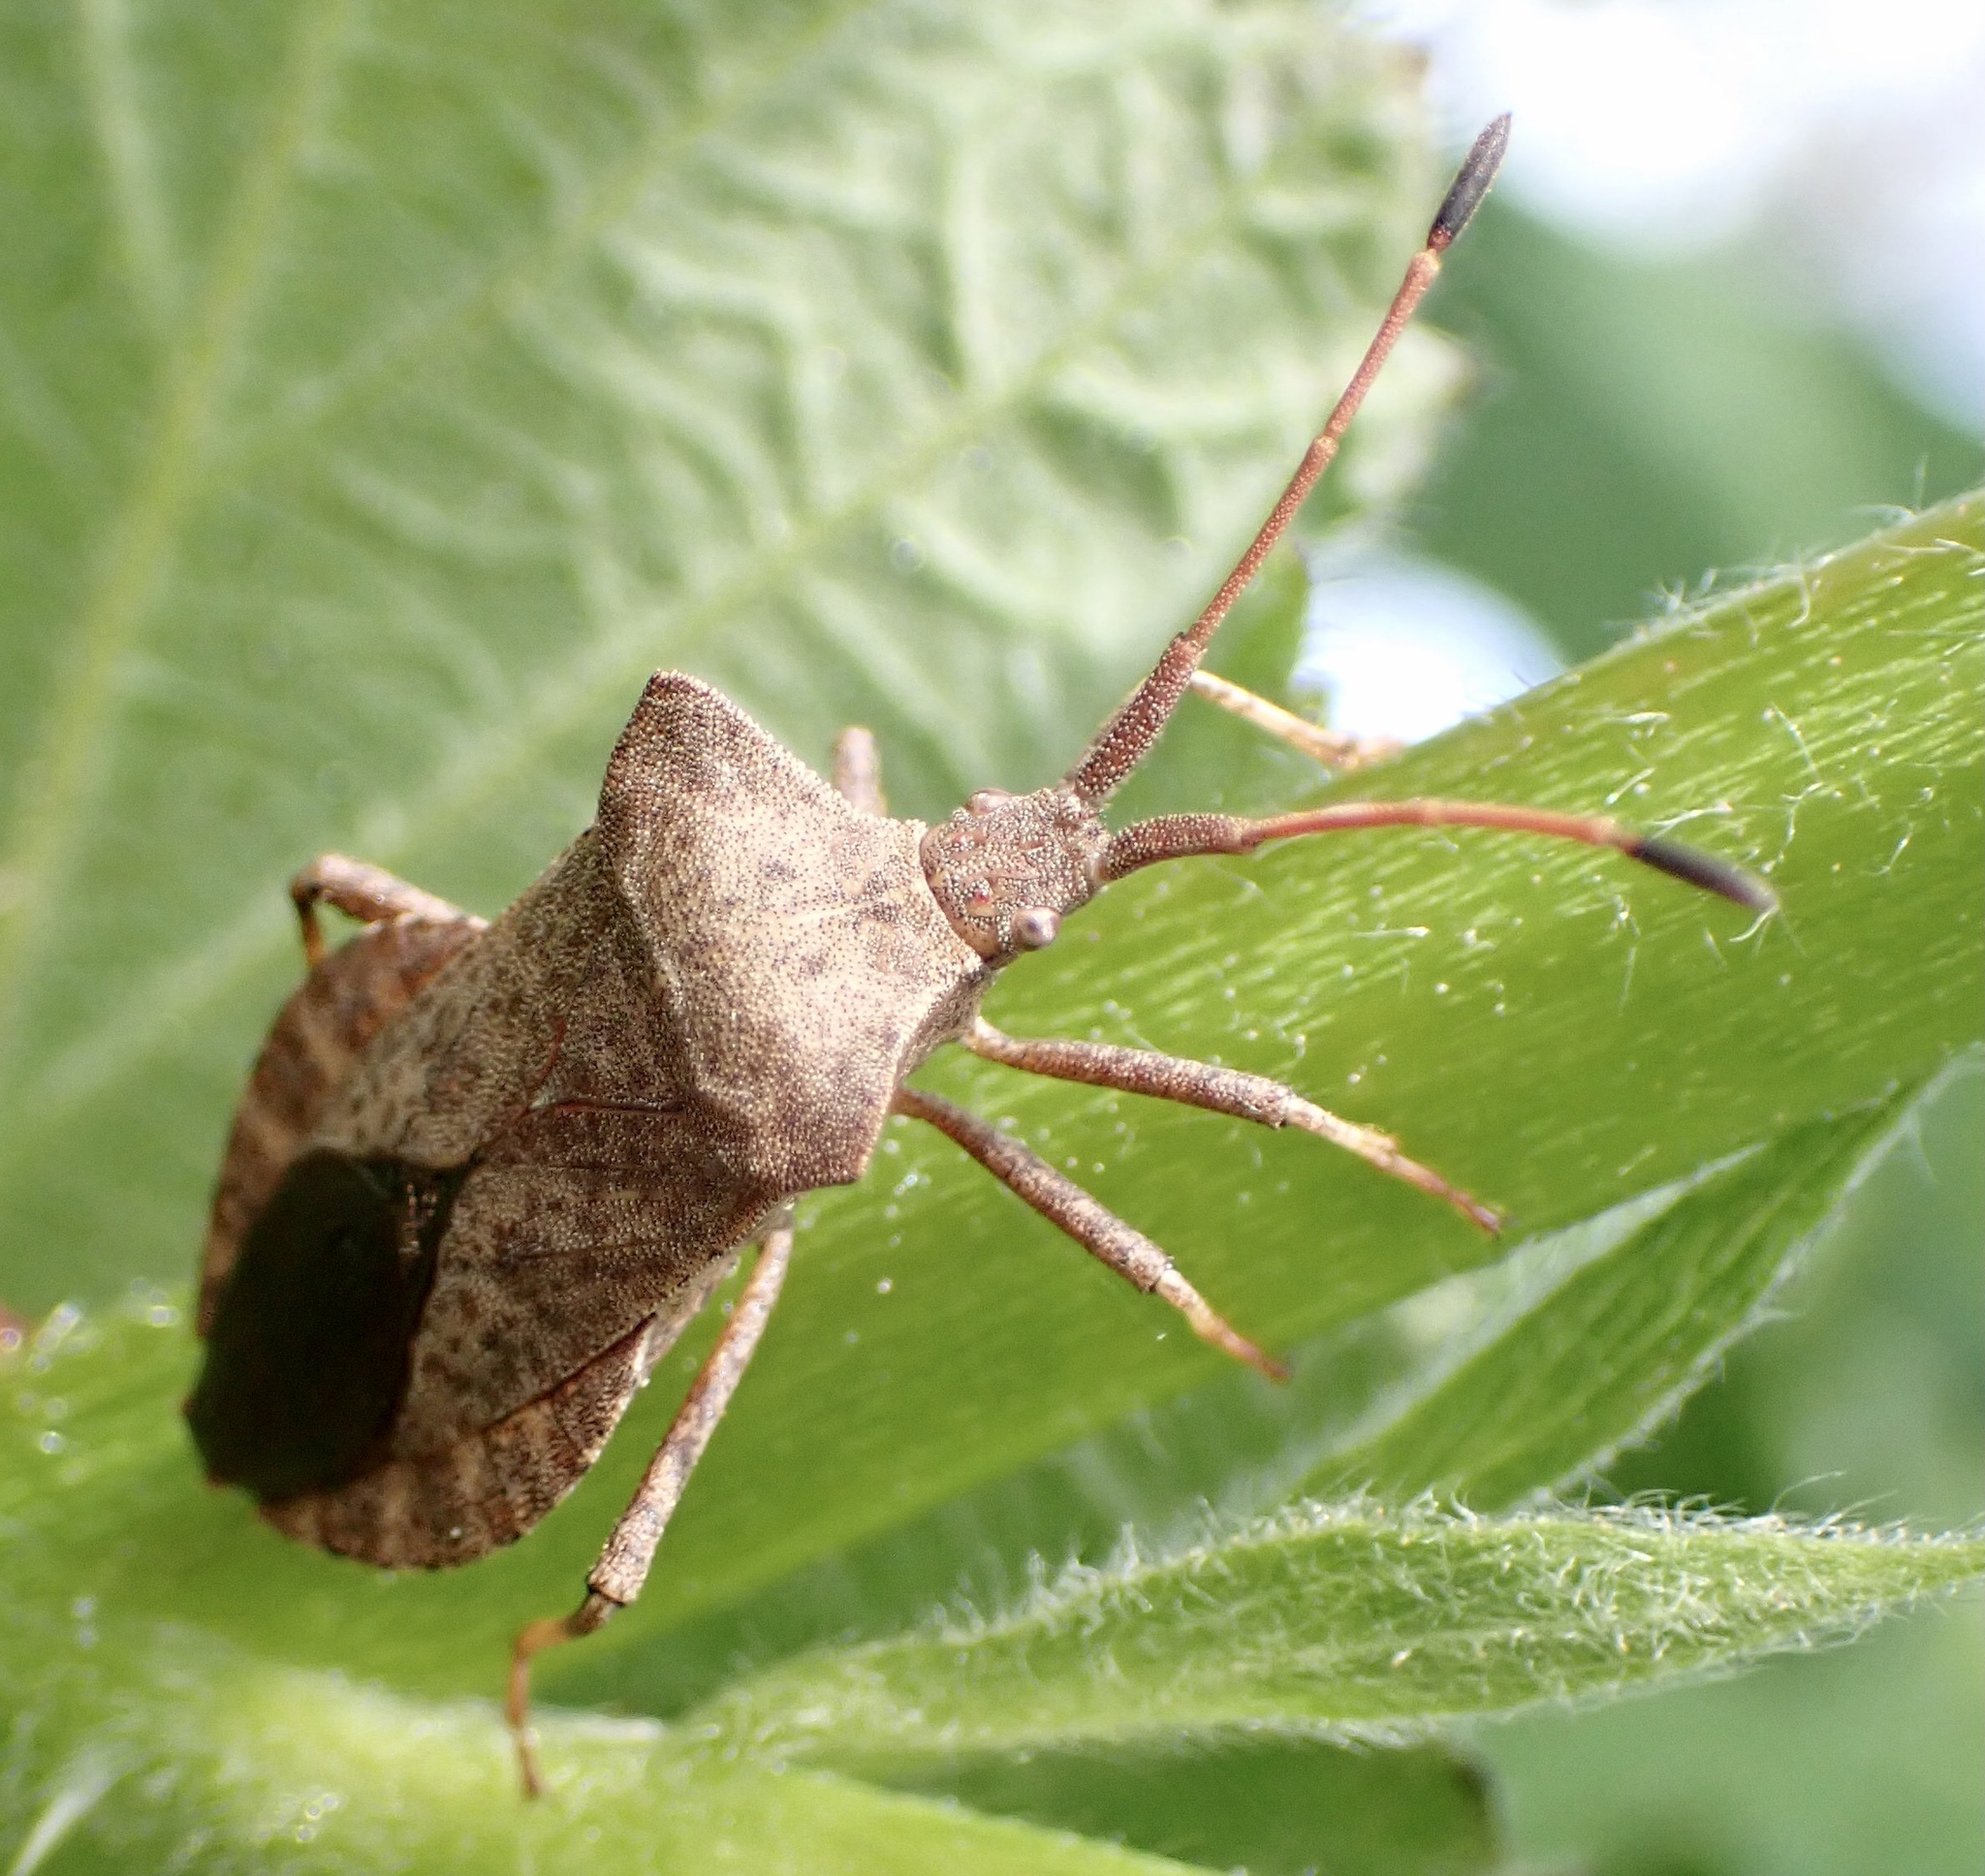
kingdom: Animalia
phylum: Arthropoda
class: Insecta
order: Hemiptera
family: Coreidae
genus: Coreus
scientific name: Coreus marginatus
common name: Dock bug
